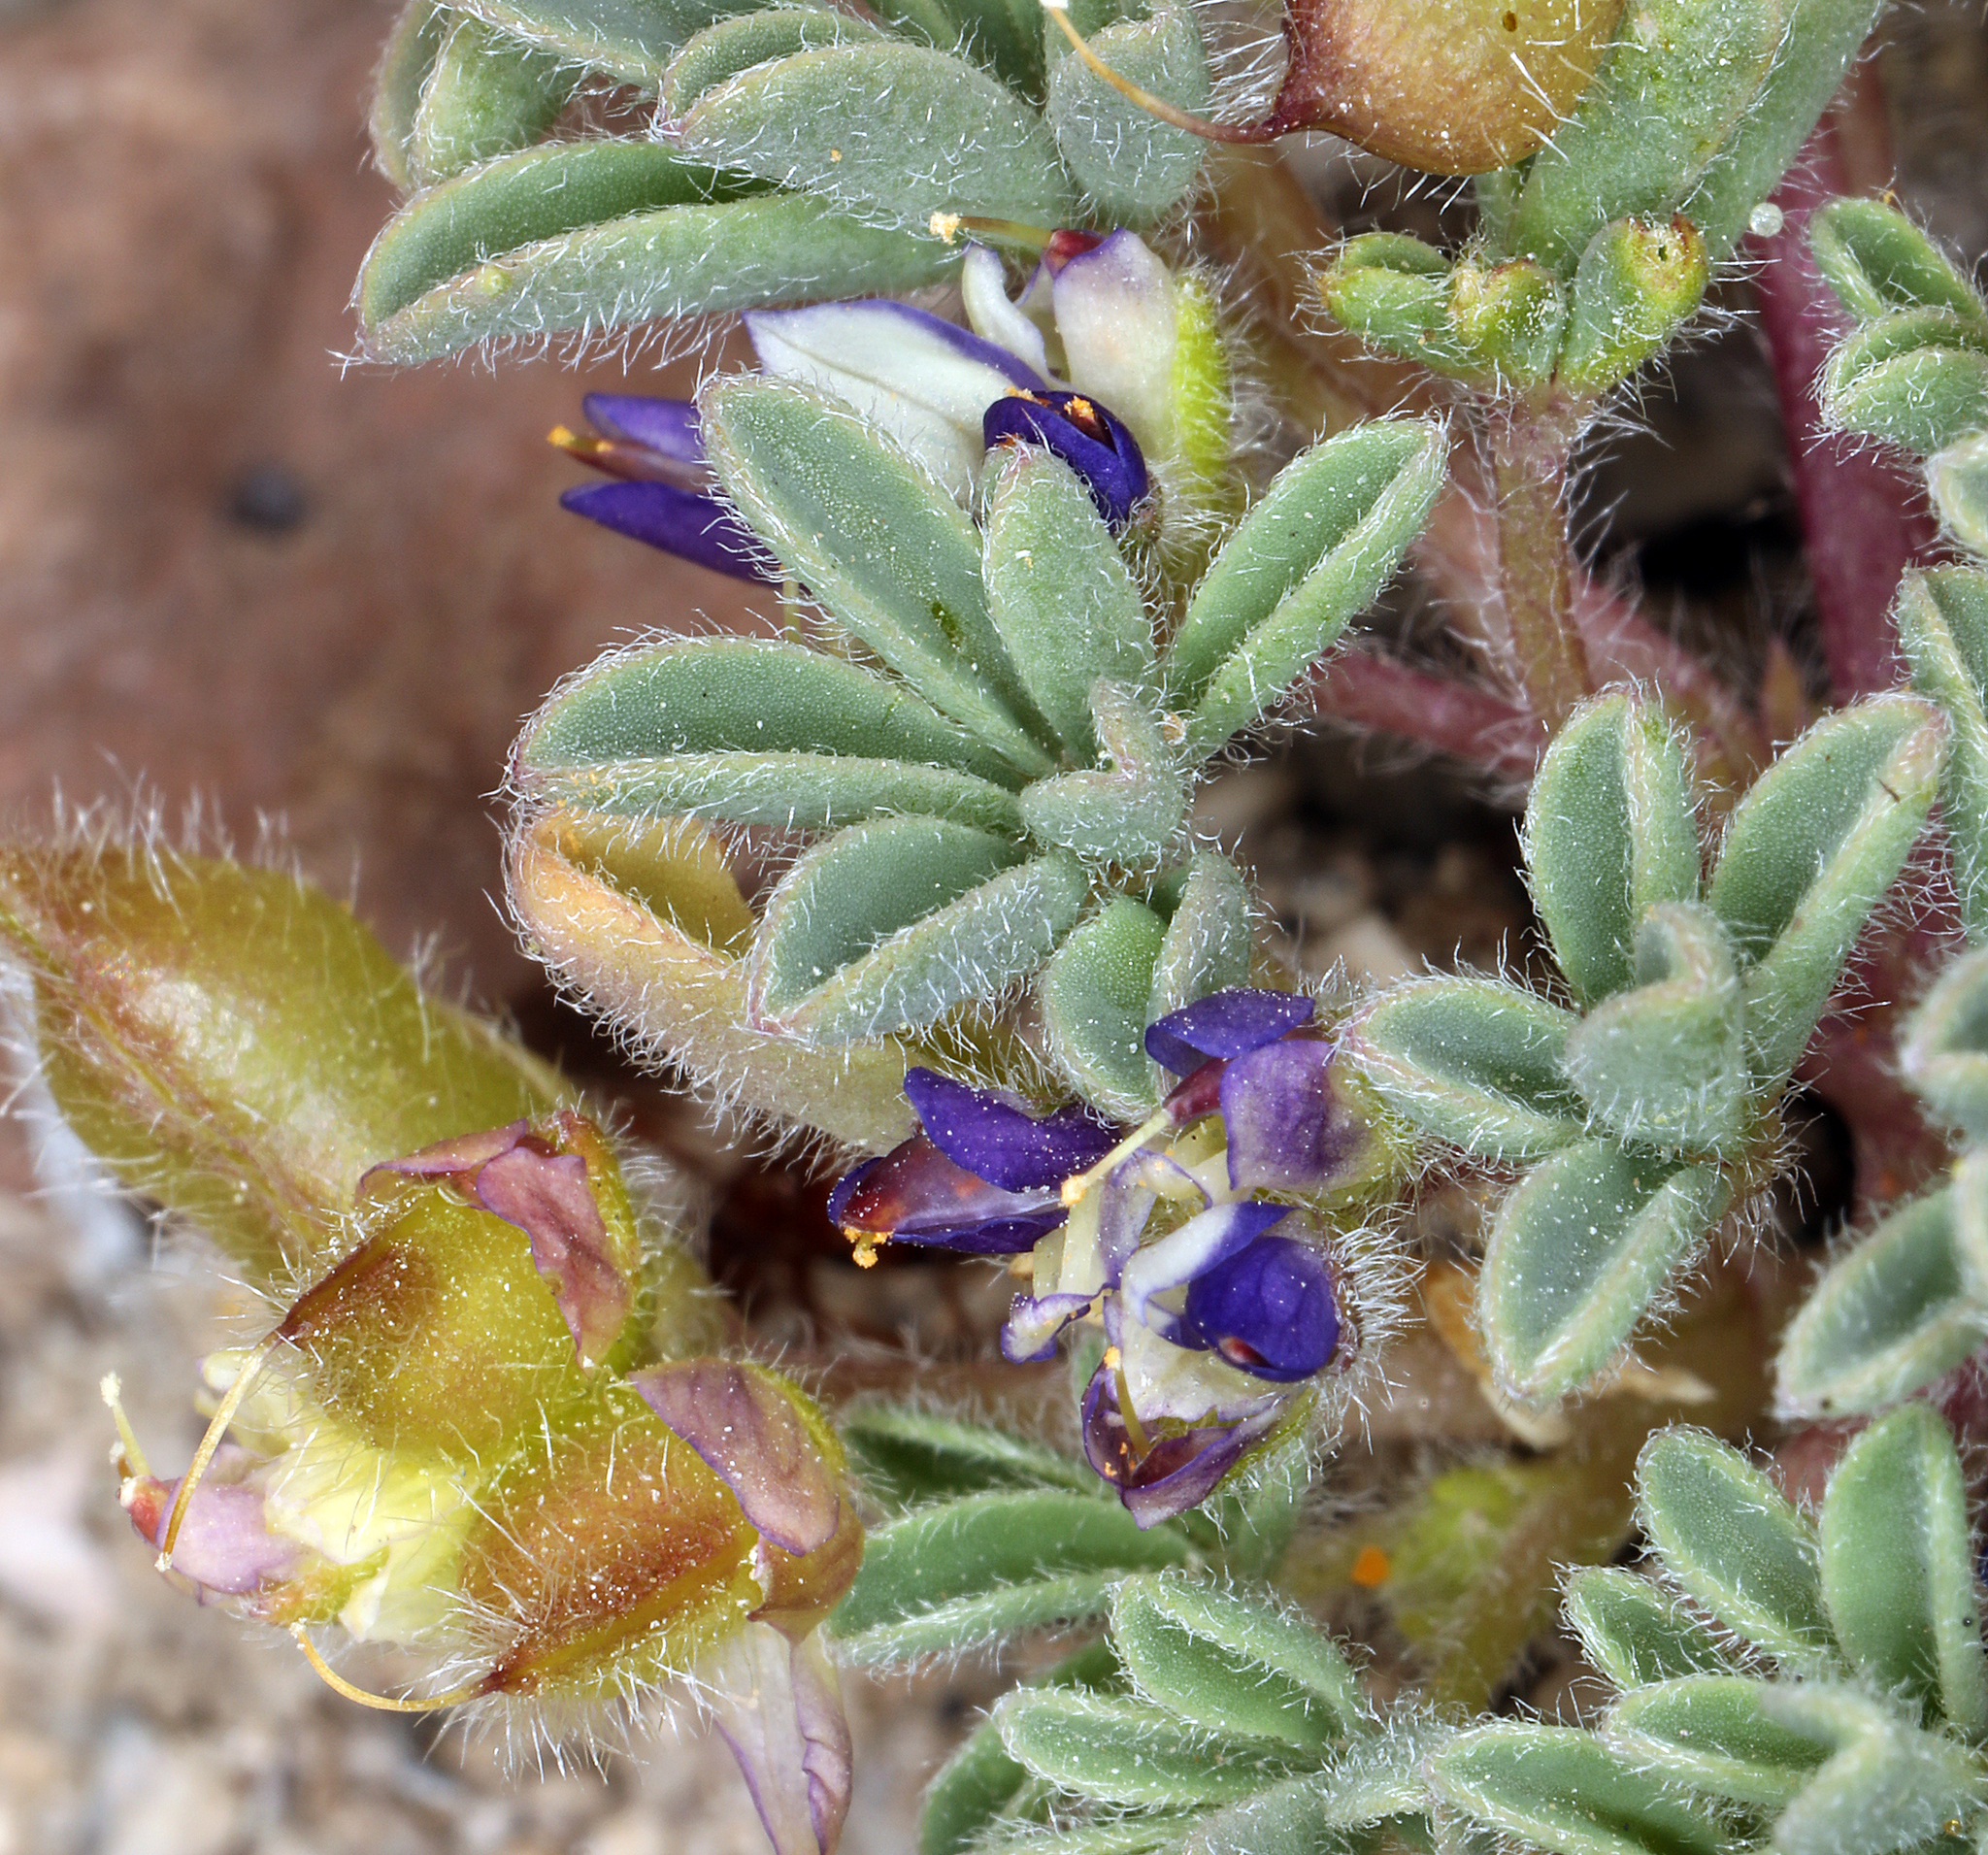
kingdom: Plantae
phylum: Tracheophyta
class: Magnoliopsida
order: Fabales
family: Fabaceae
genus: Lupinus
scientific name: Lupinus brevicaulis
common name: Sand lupine
